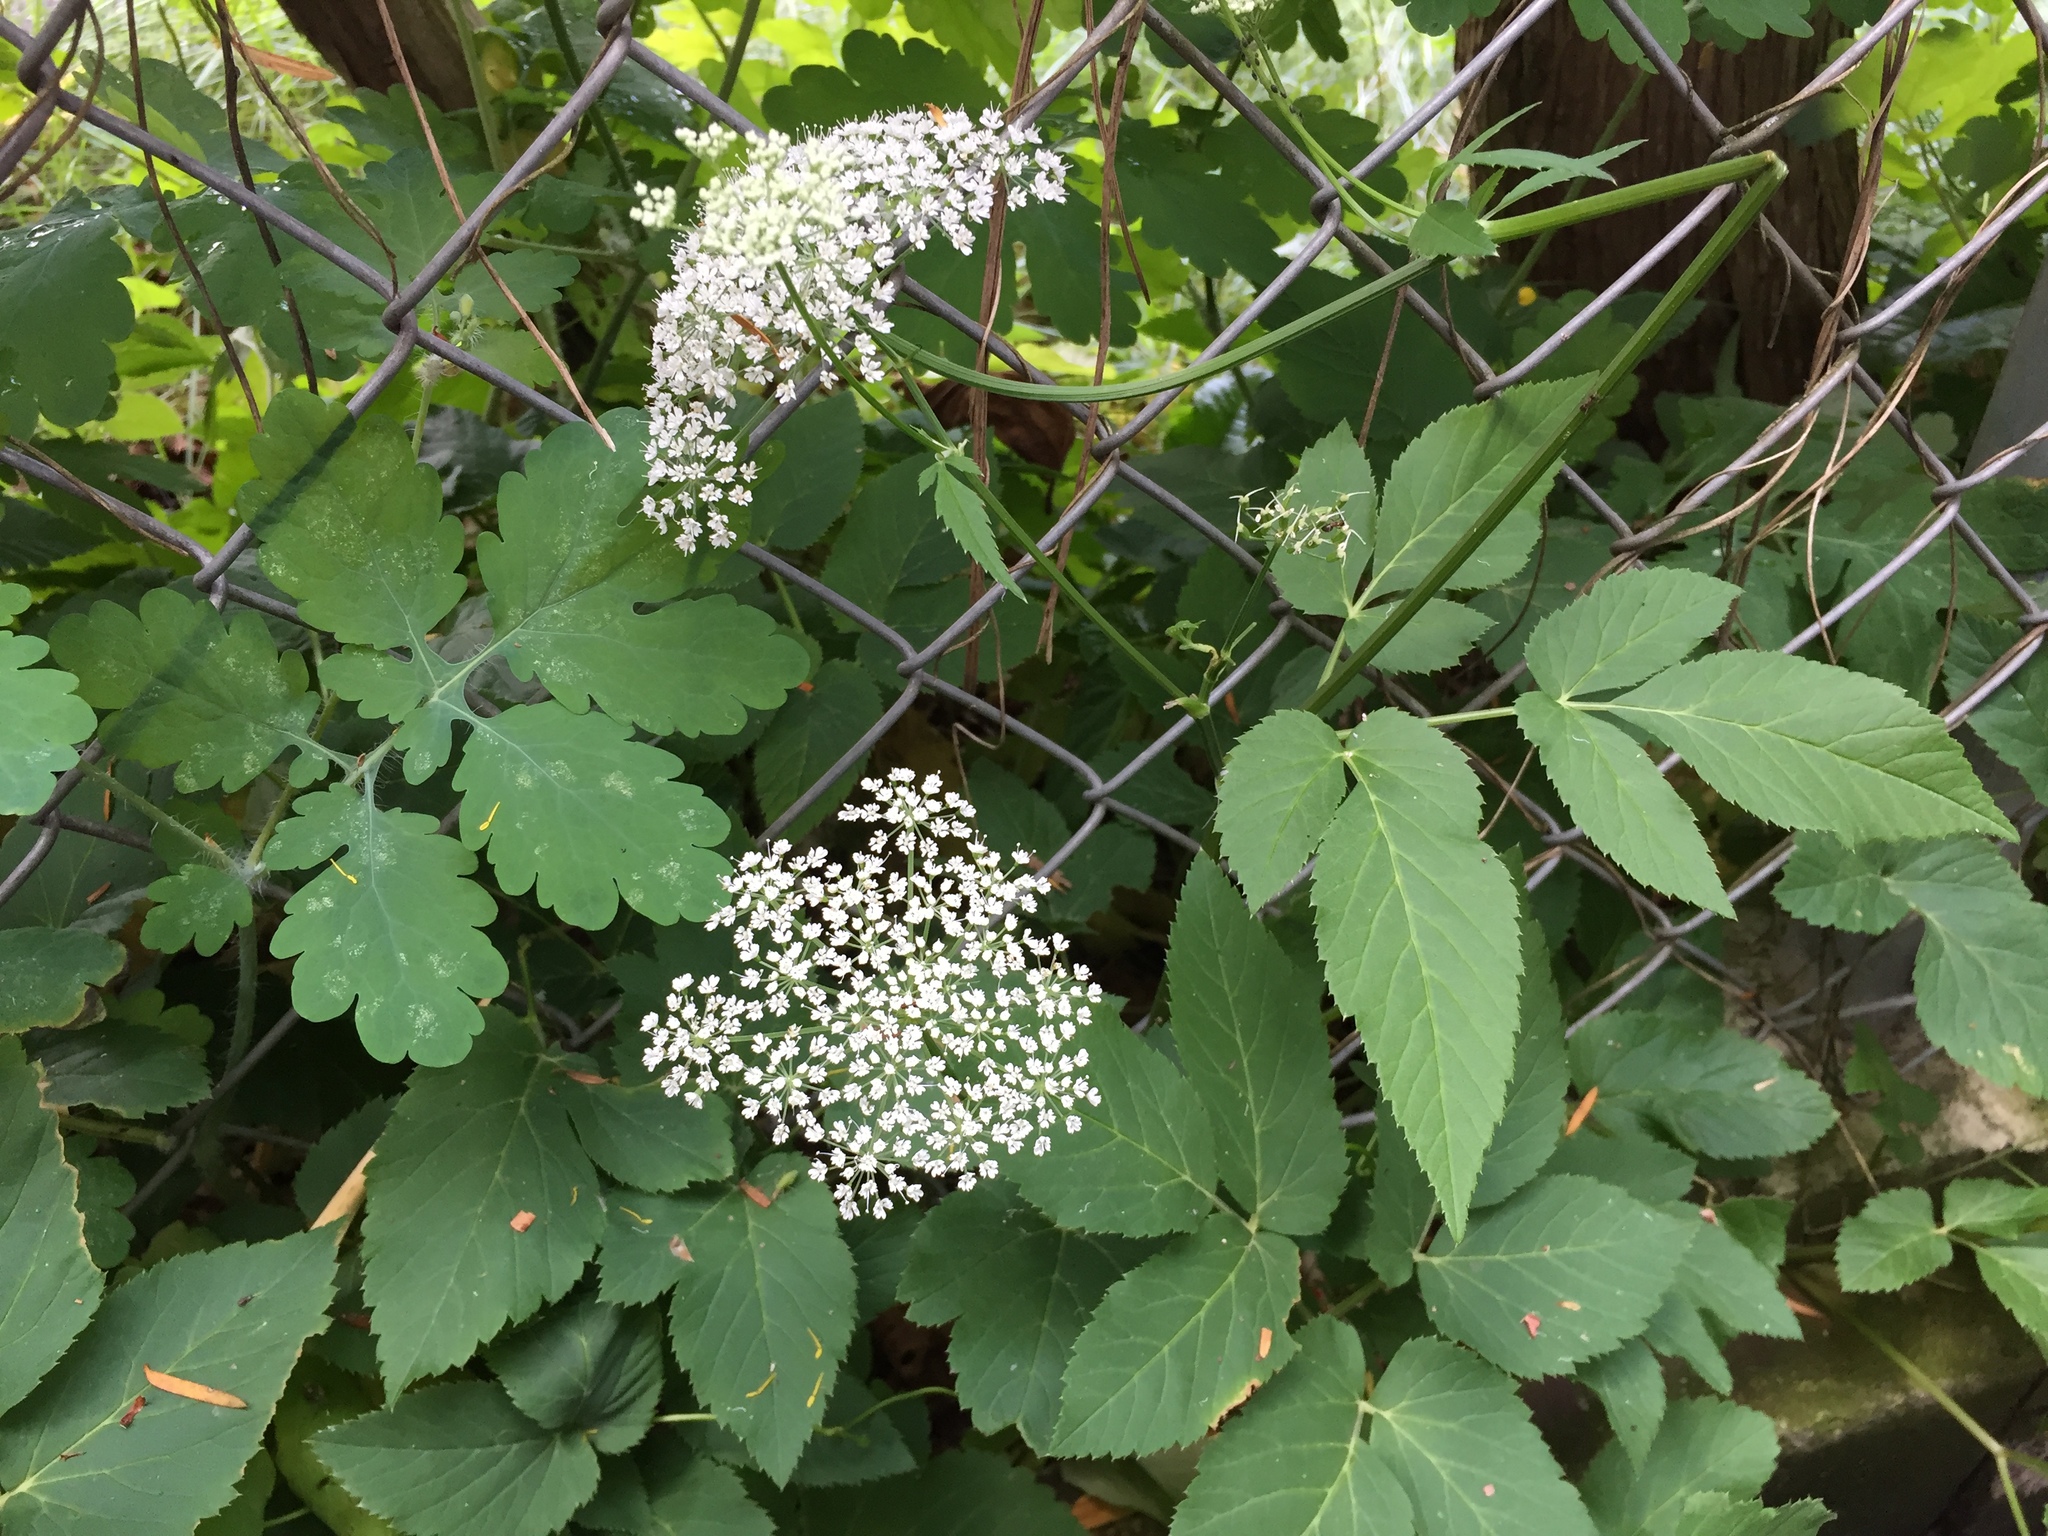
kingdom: Plantae
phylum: Tracheophyta
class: Magnoliopsida
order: Apiales
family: Apiaceae
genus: Aegopodium
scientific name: Aegopodium podagraria
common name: Ground-elder
